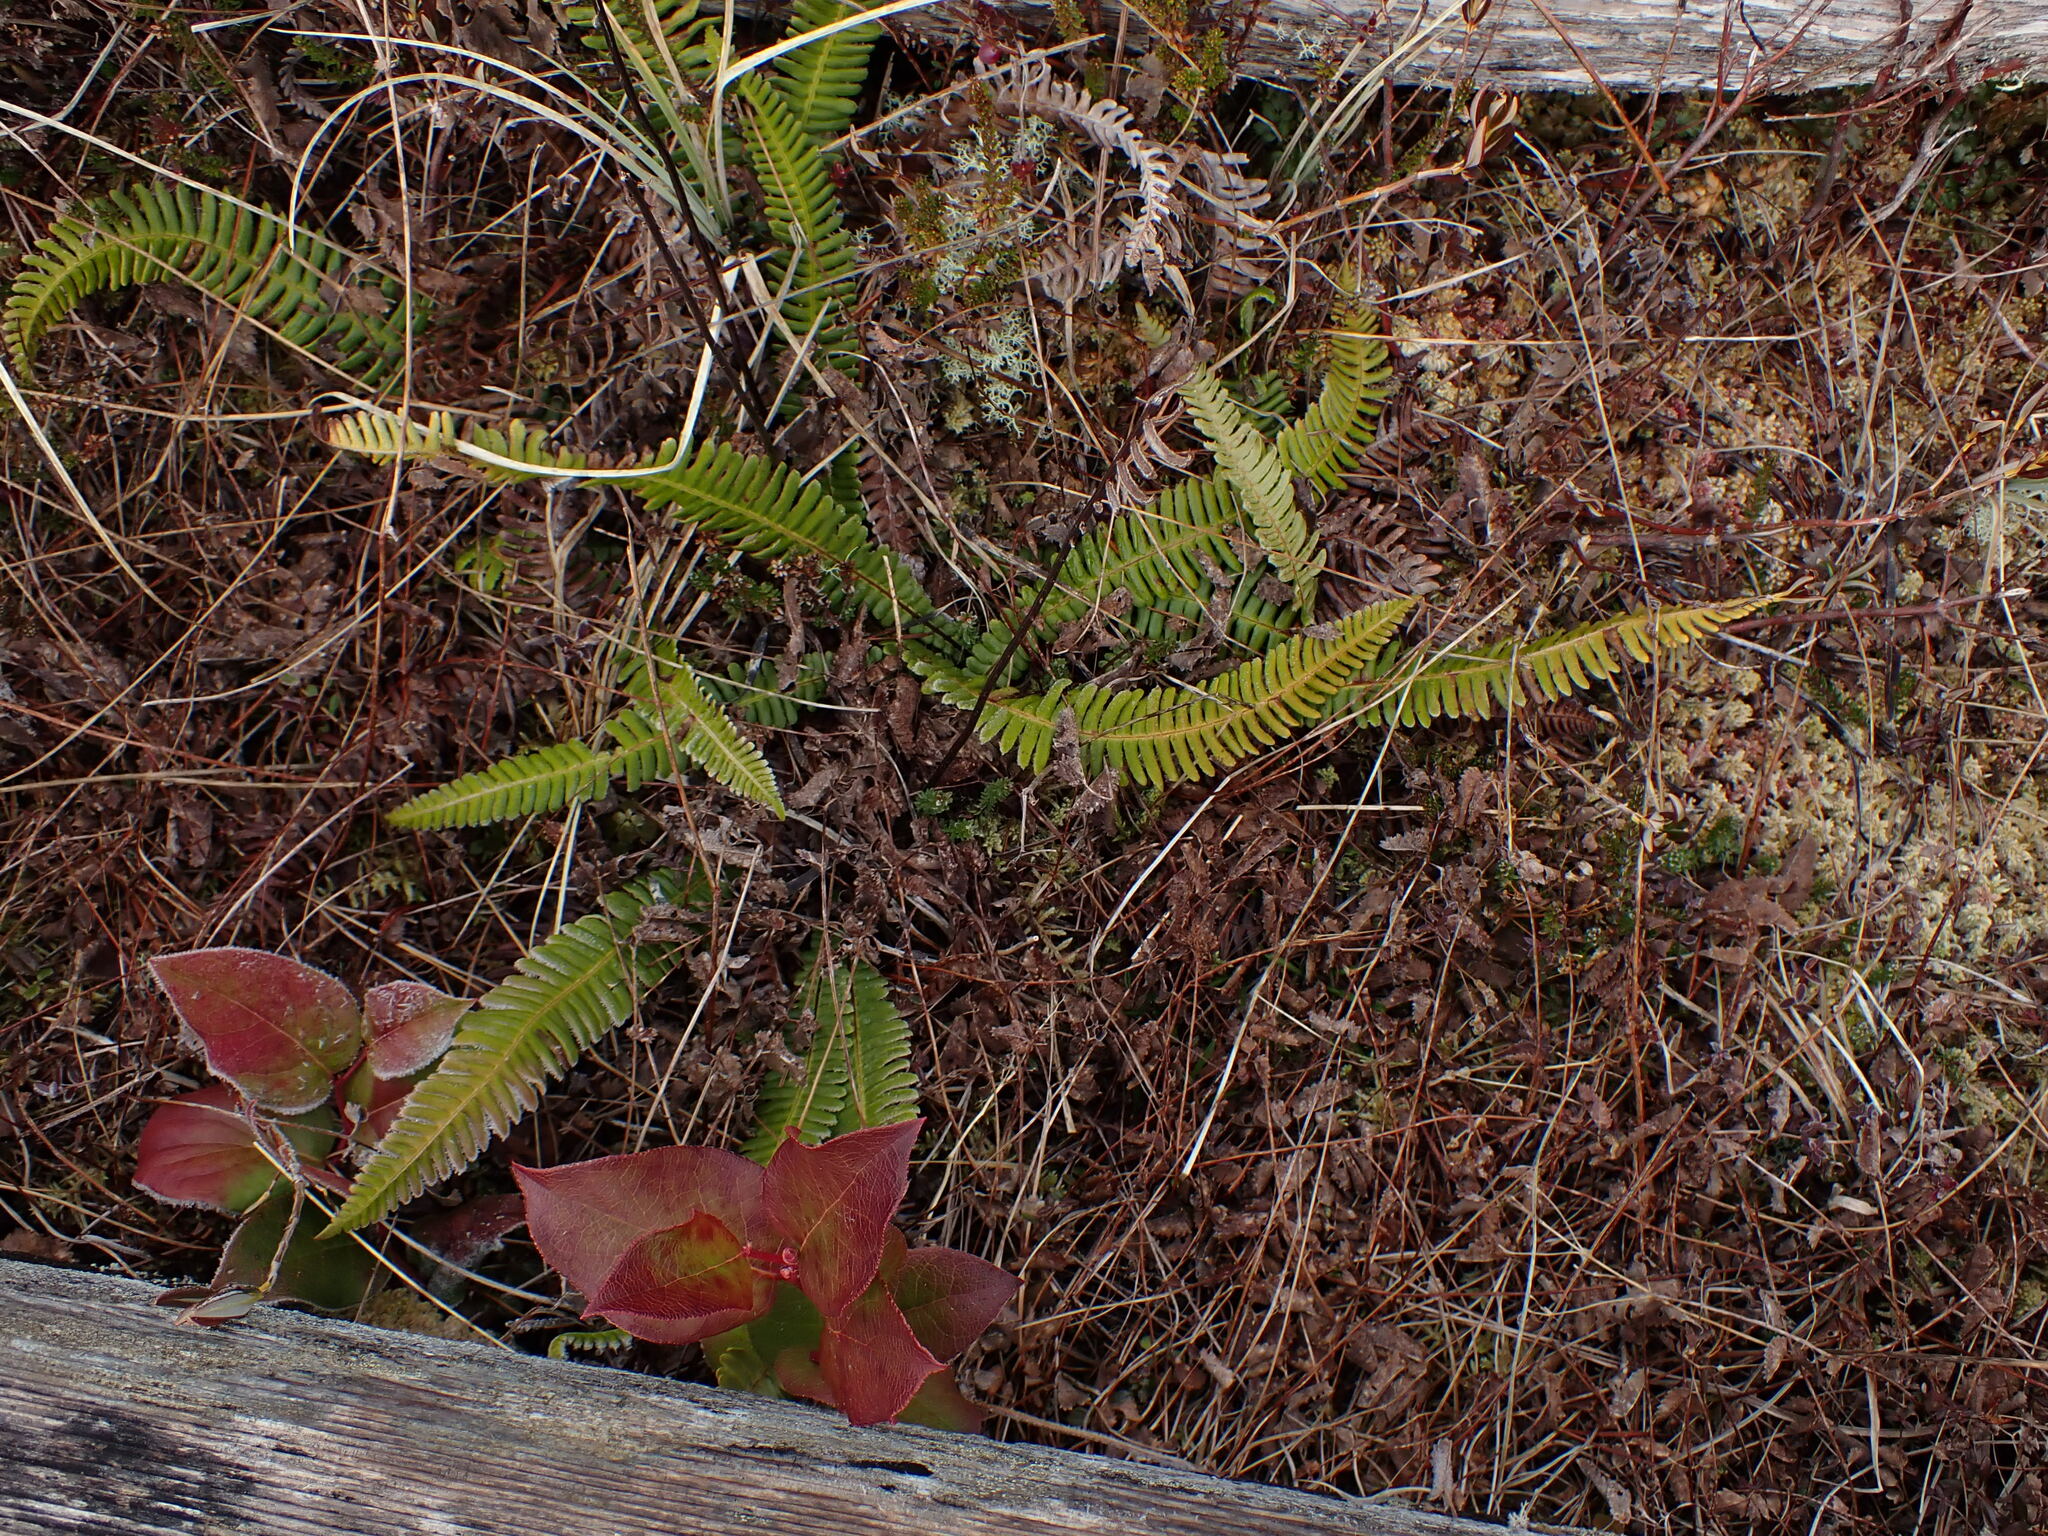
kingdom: Plantae
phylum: Tracheophyta
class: Polypodiopsida
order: Polypodiales
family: Blechnaceae
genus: Struthiopteris
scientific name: Struthiopteris spicant
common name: Deer fern
